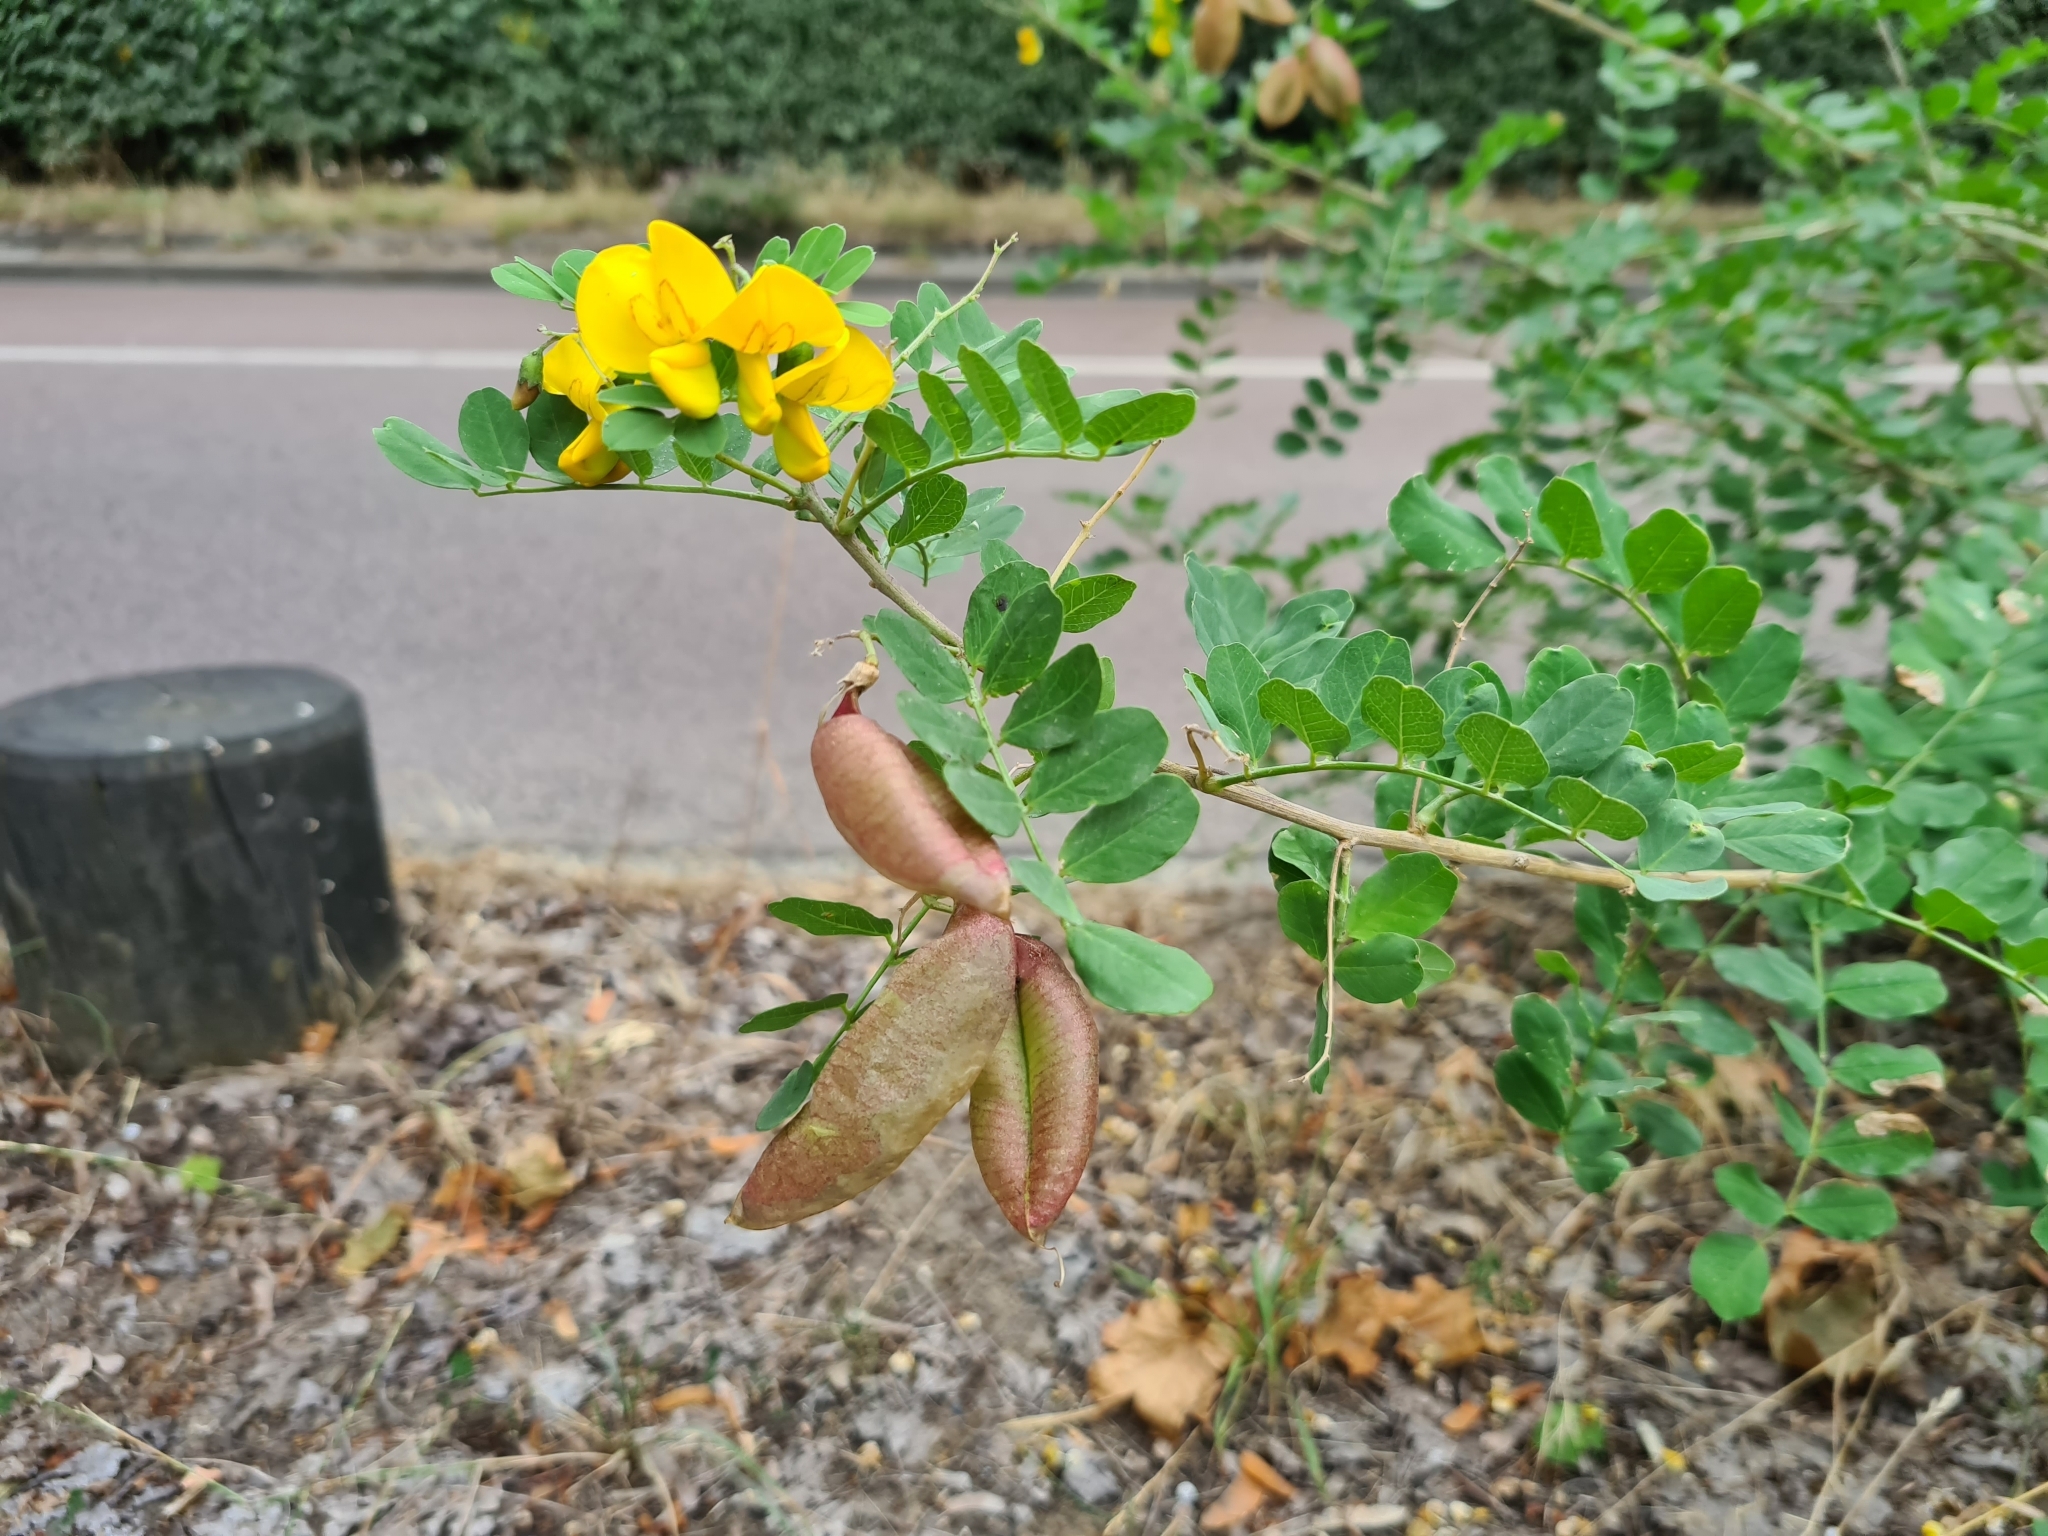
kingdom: Plantae
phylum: Tracheophyta
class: Magnoliopsida
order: Fabales
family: Fabaceae
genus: Colutea
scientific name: Colutea arborescens
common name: Bladder-senna
